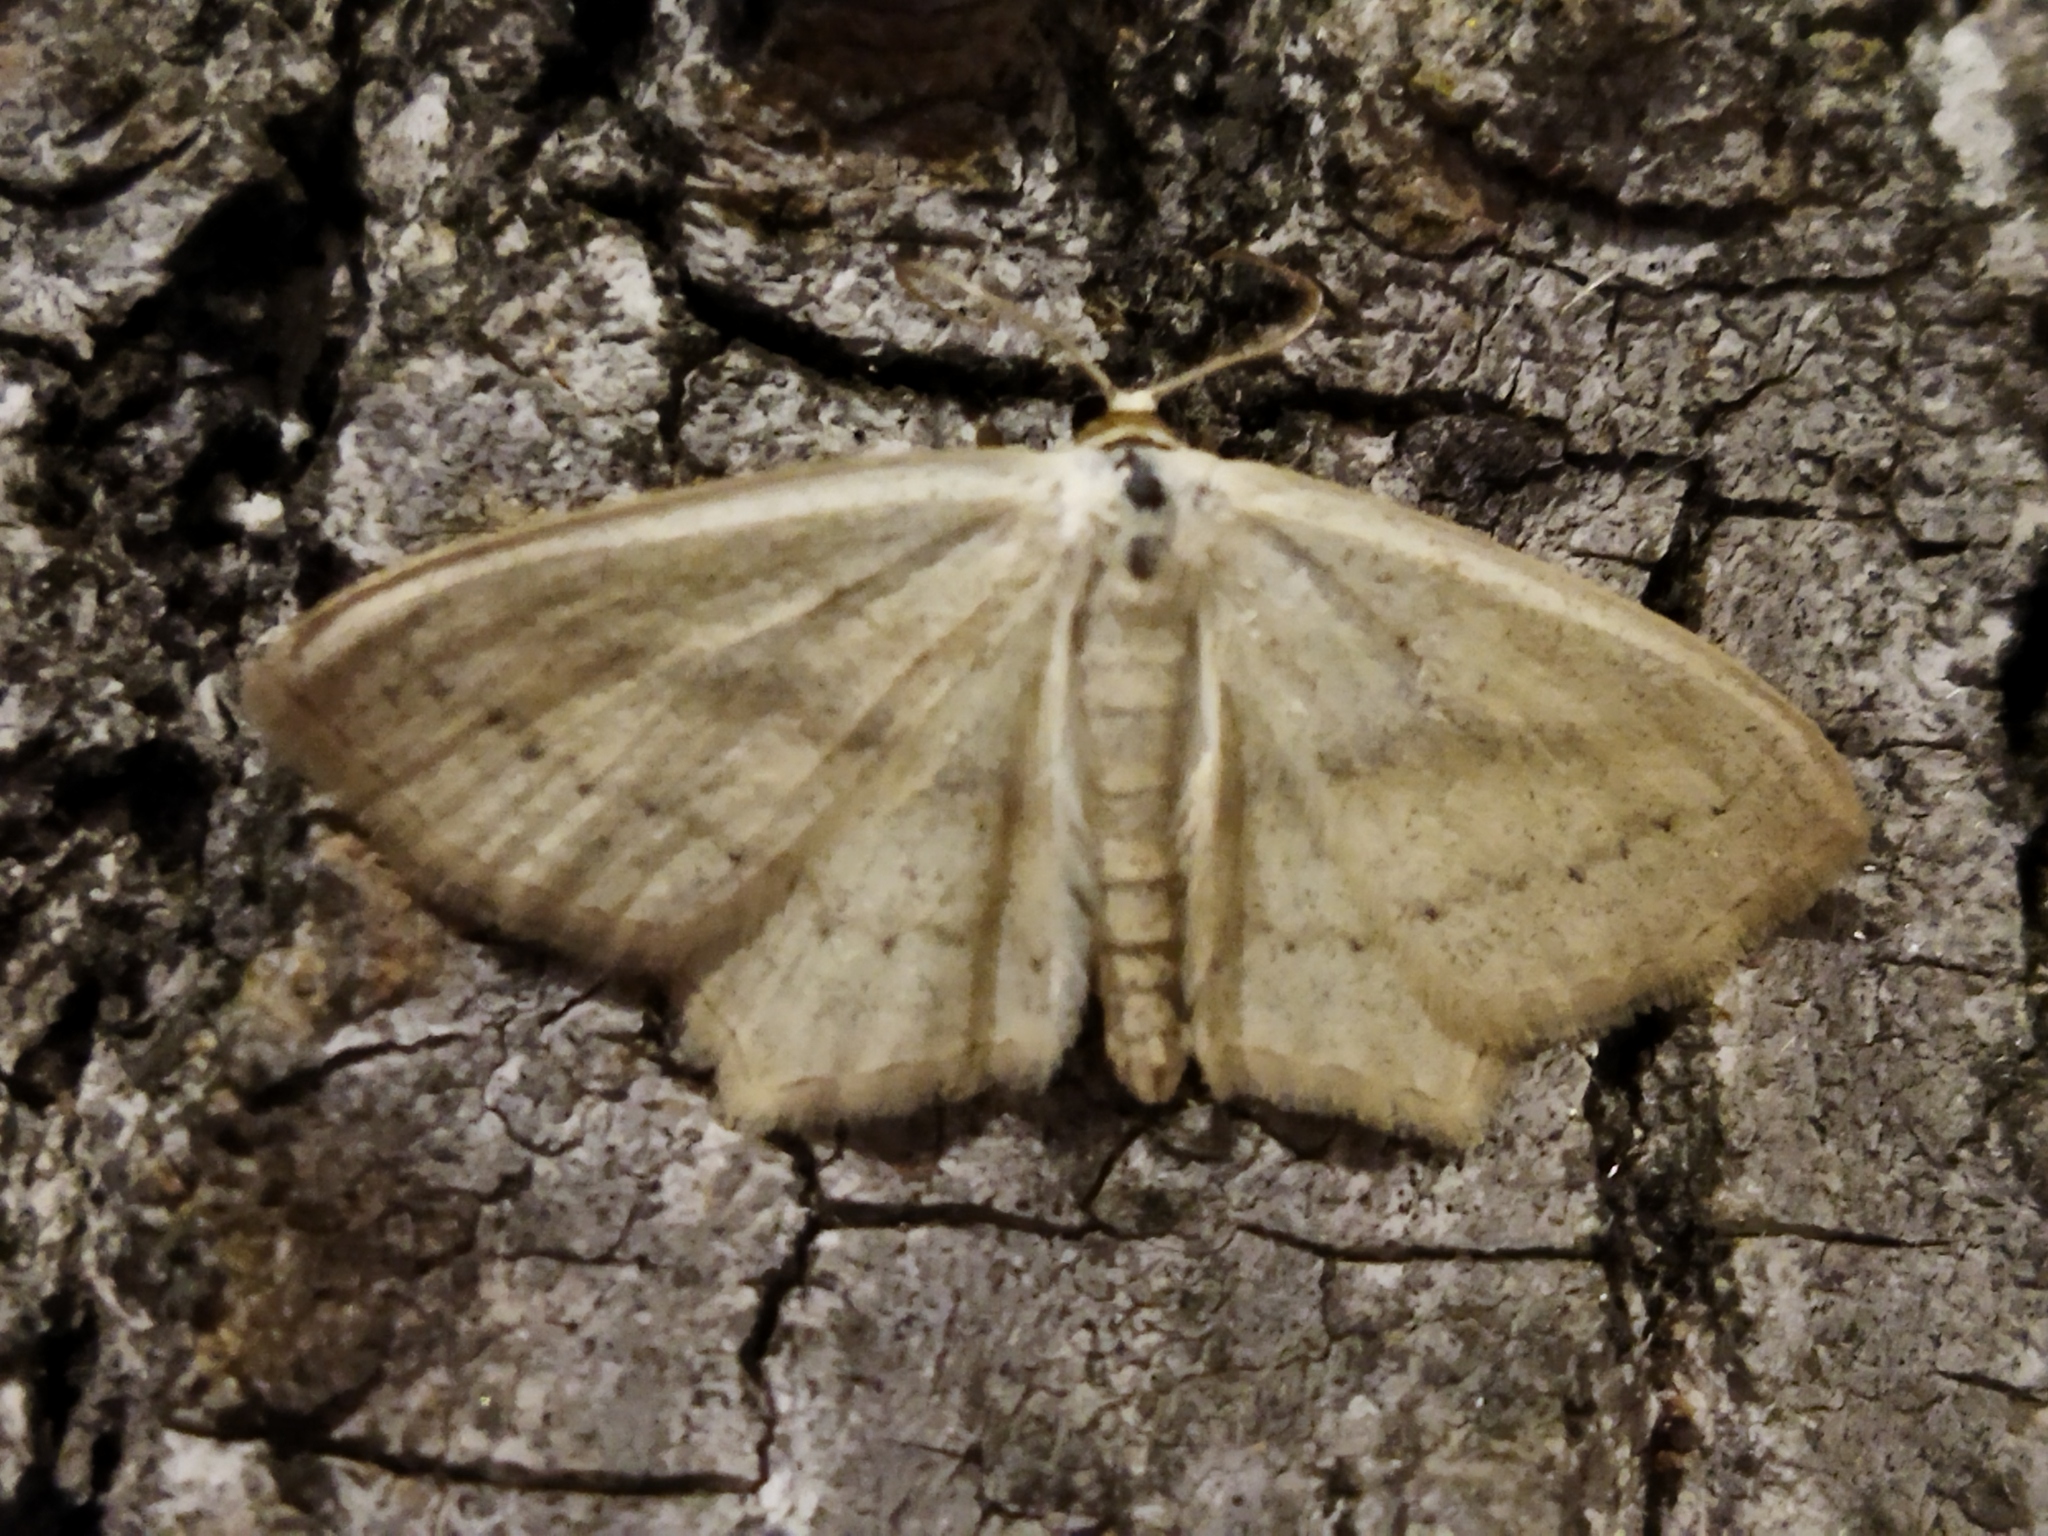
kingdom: Animalia
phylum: Arthropoda
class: Insecta
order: Lepidoptera
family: Geometridae
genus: Scopula
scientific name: Scopula flaccidaria
